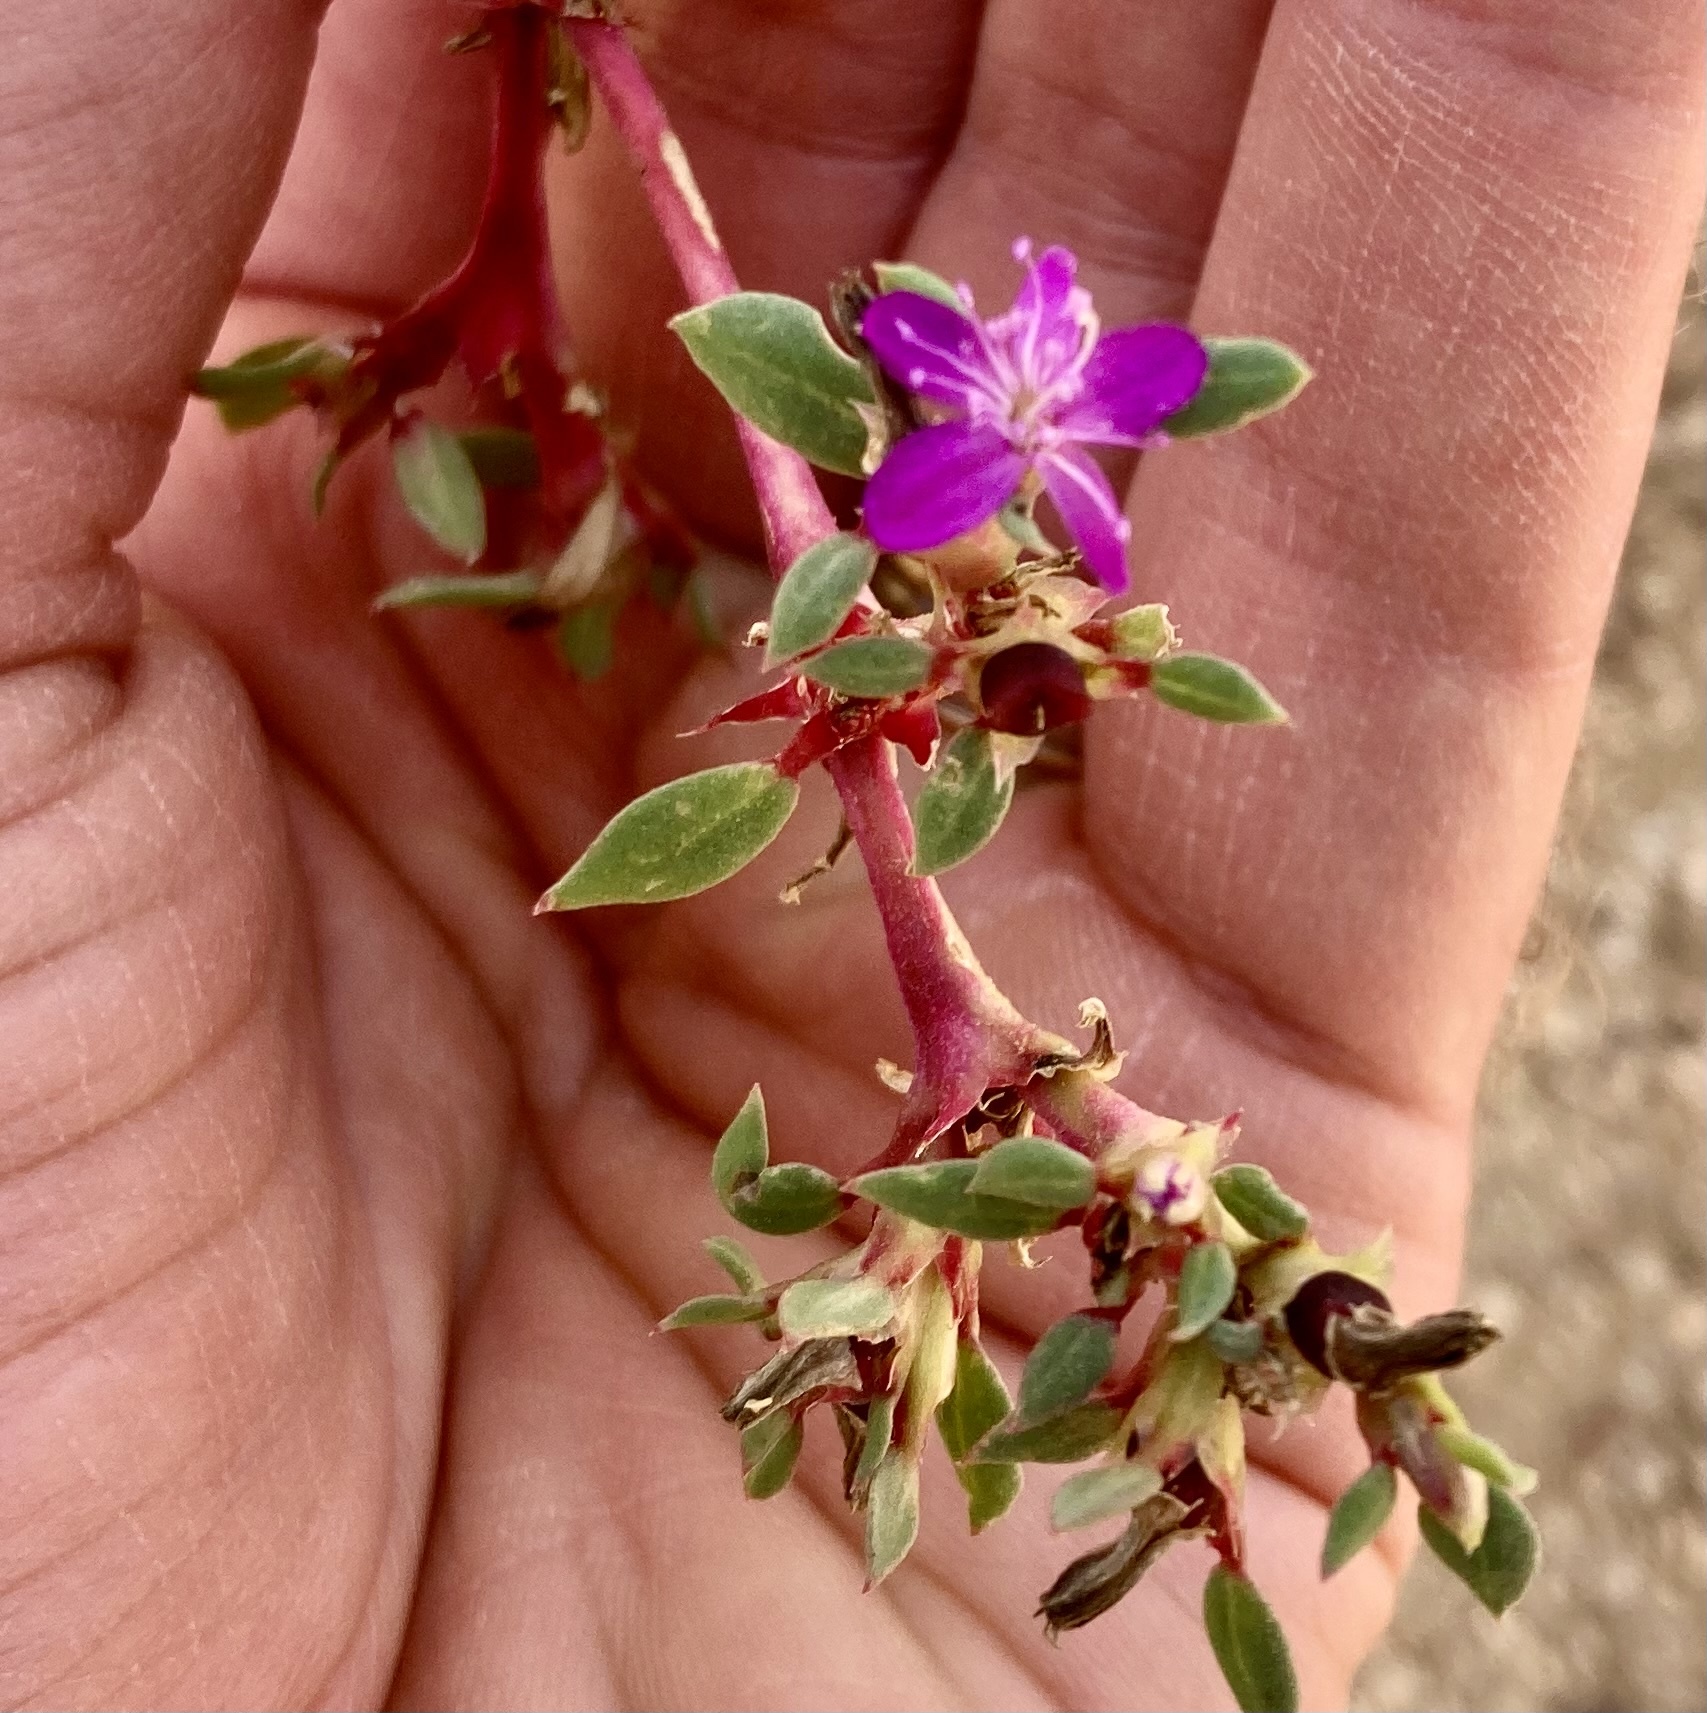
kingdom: Plantae
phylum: Tracheophyta
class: Magnoliopsida
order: Caryophyllales
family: Aizoaceae
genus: Trianthema
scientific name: Trianthema portulacastrum
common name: Desert horsepurslane
